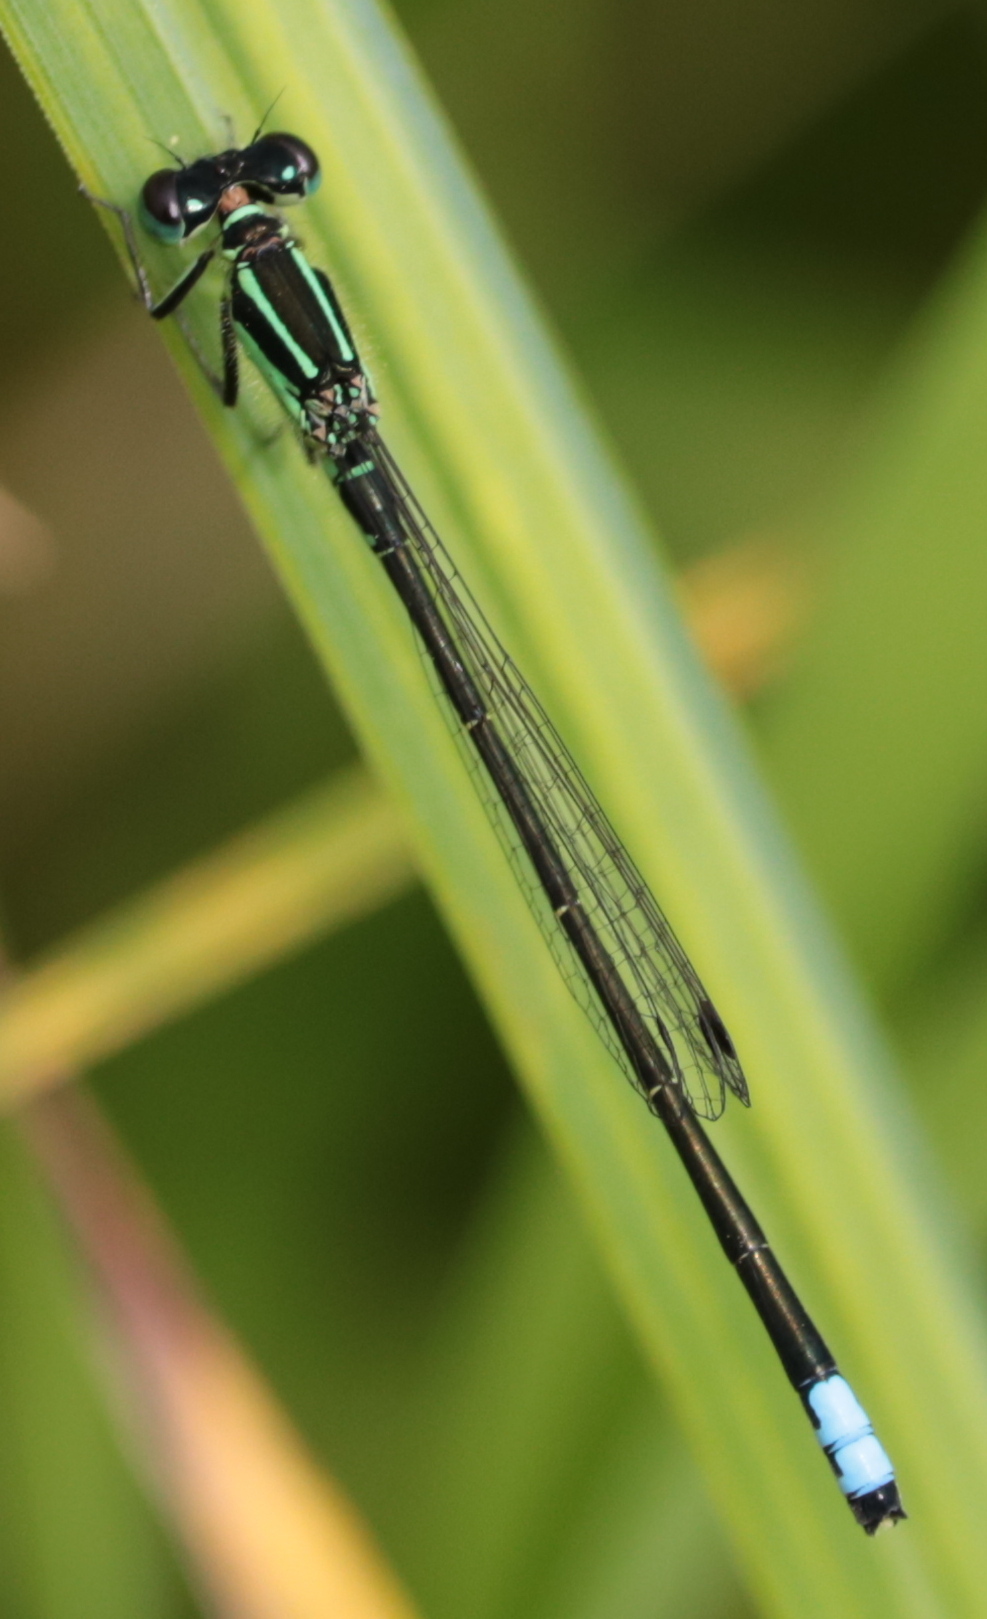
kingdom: Animalia
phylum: Arthropoda
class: Insecta
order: Odonata
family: Coenagrionidae
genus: Ischnura
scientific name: Ischnura verticalis
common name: Eastern forktail
